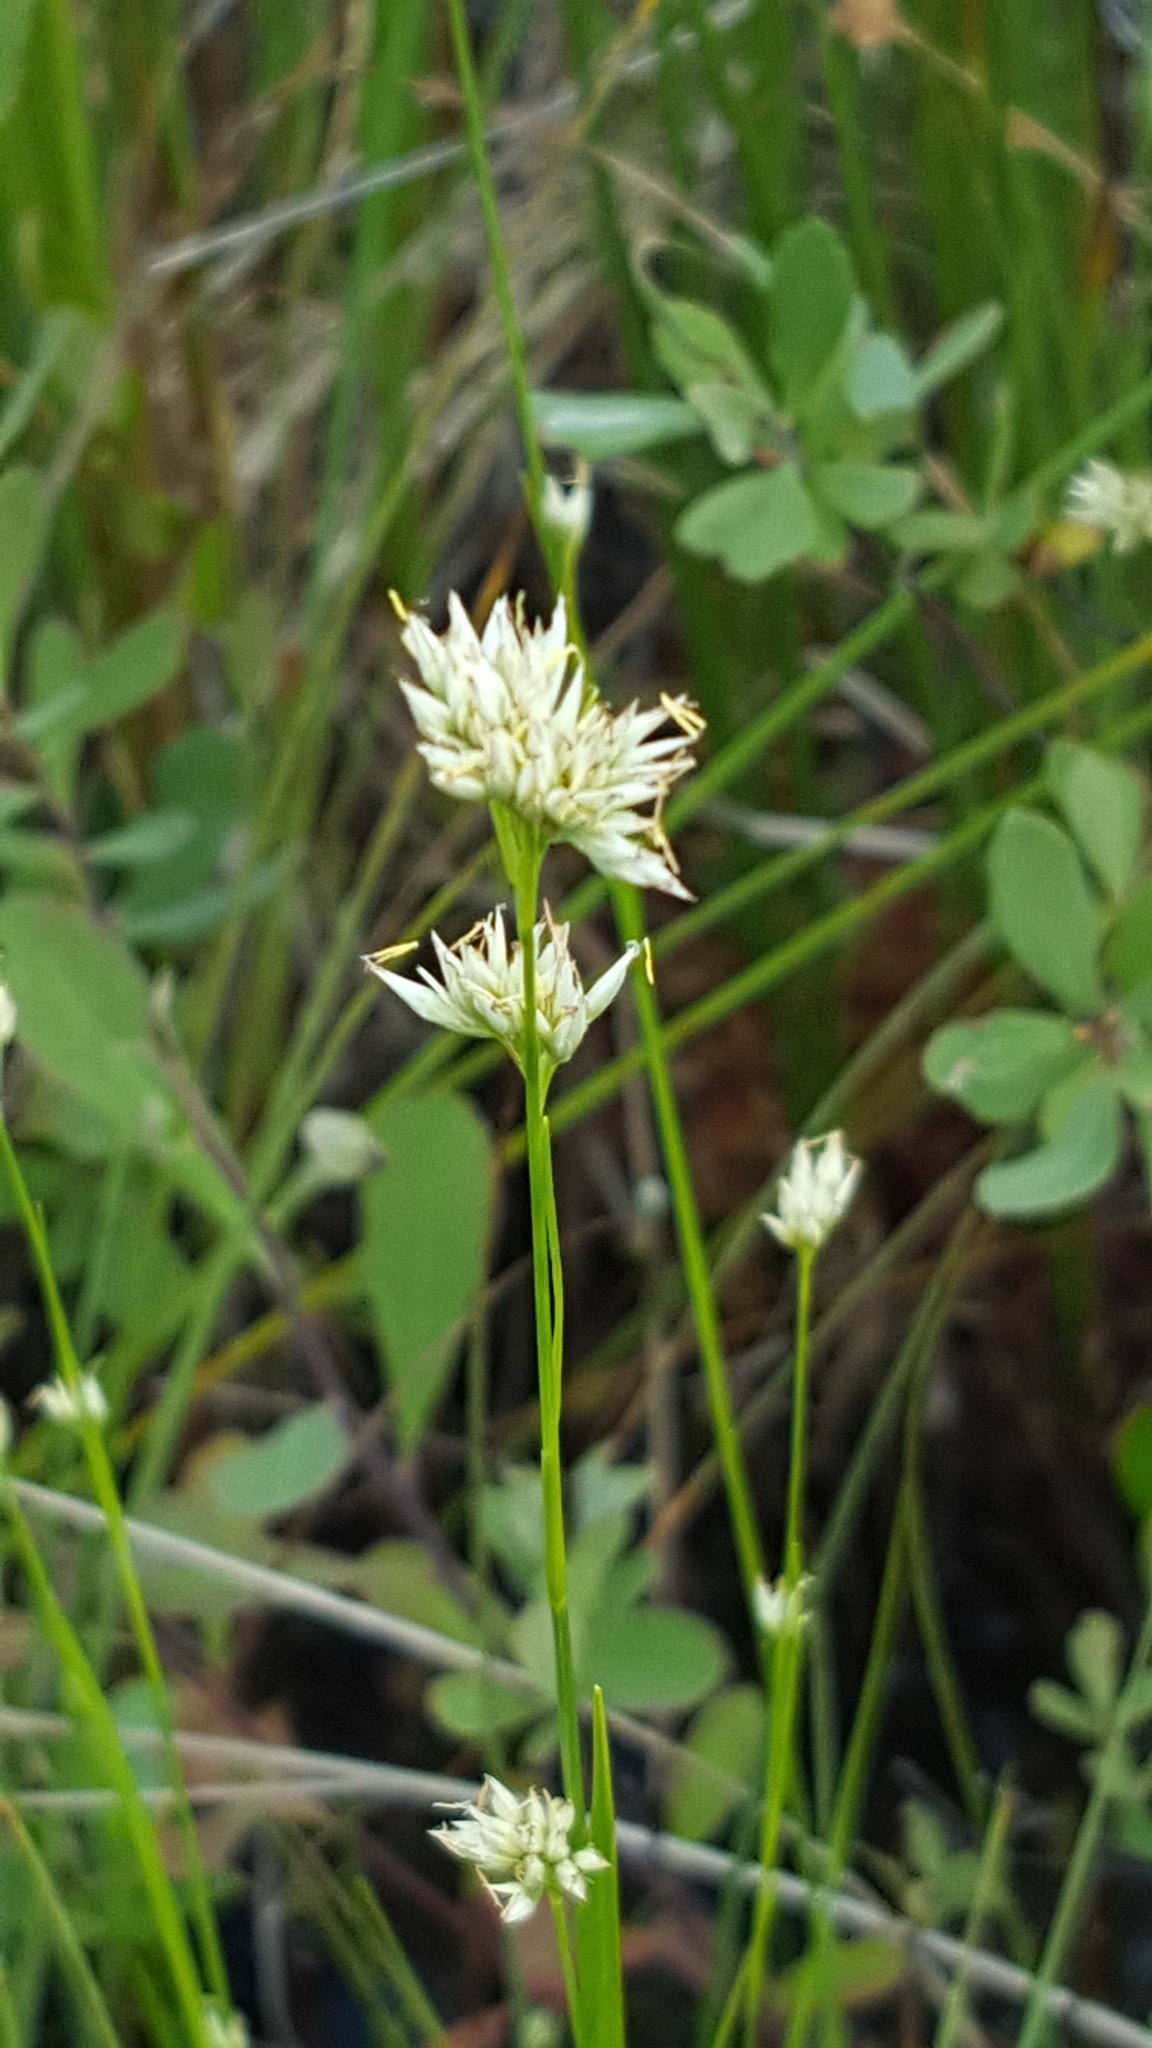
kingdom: Plantae
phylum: Tracheophyta
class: Liliopsida
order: Poales
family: Cyperaceae
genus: Rhynchospora
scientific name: Rhynchospora alba
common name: White beak-sedge
